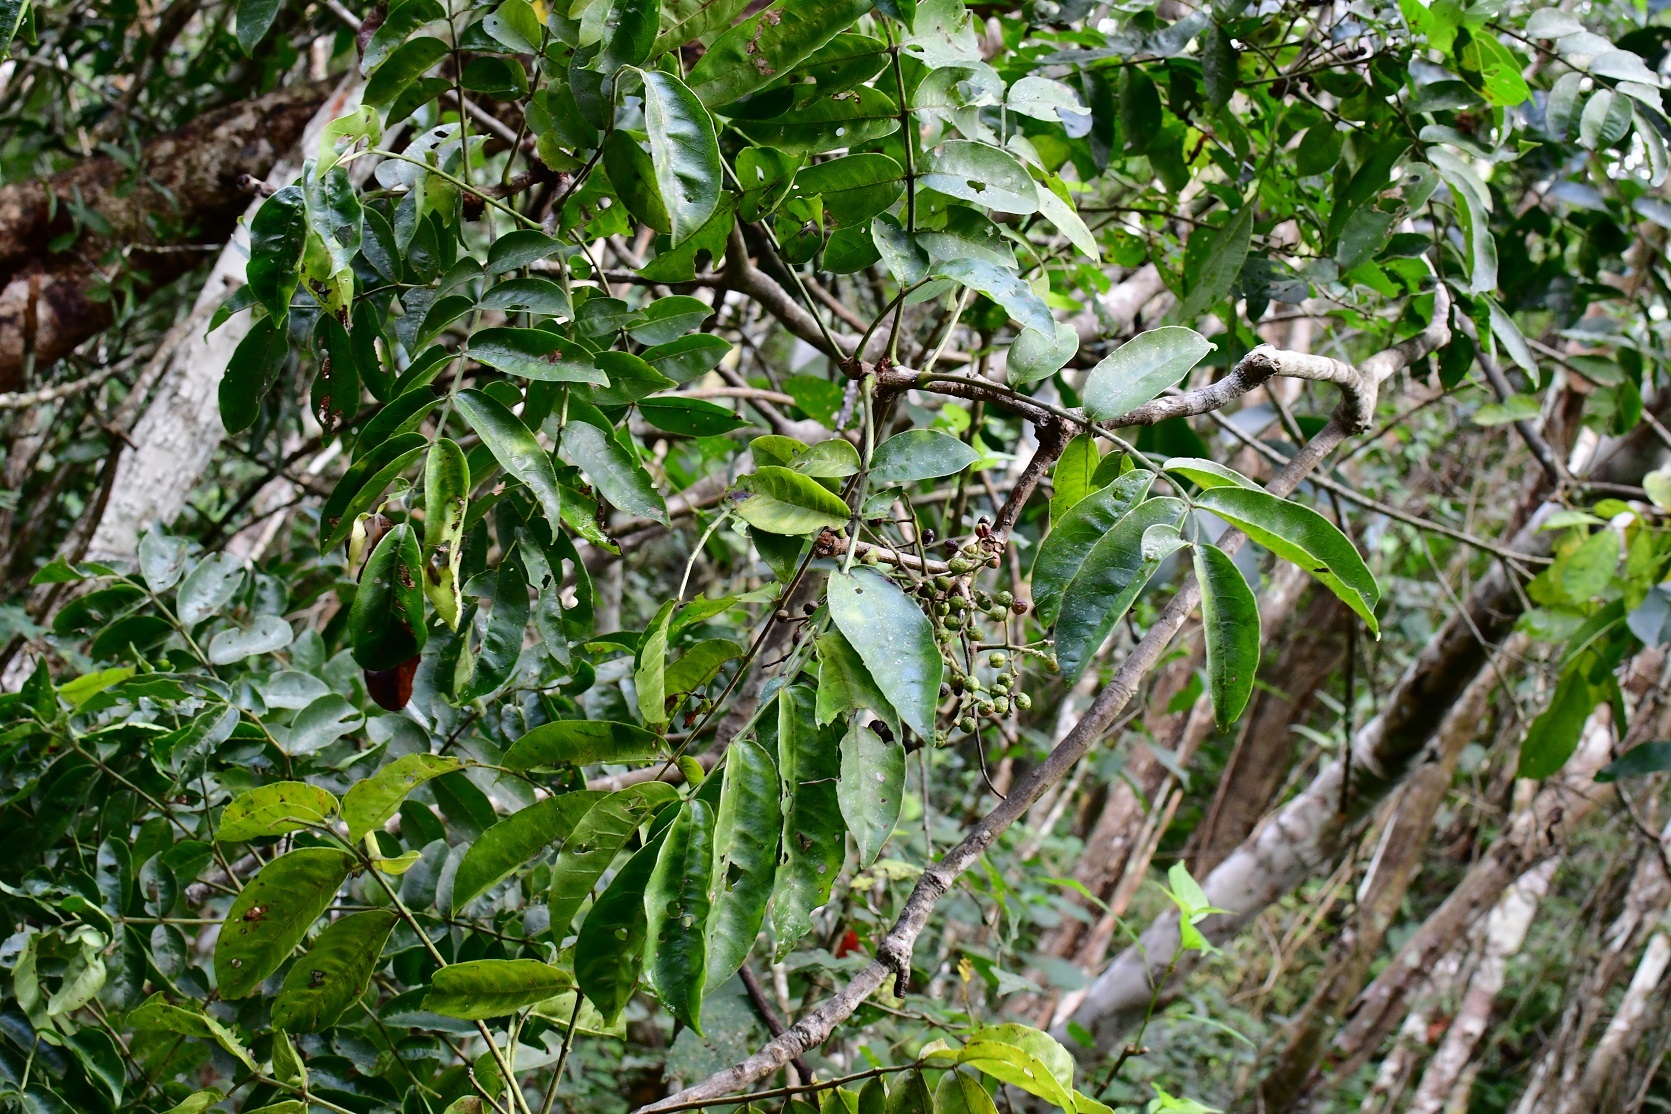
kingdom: Plantae
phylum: Tracheophyta
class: Magnoliopsida
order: Sapindales
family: Rutaceae
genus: Zanthoxylum
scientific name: Zanthoxylum ekmanii
